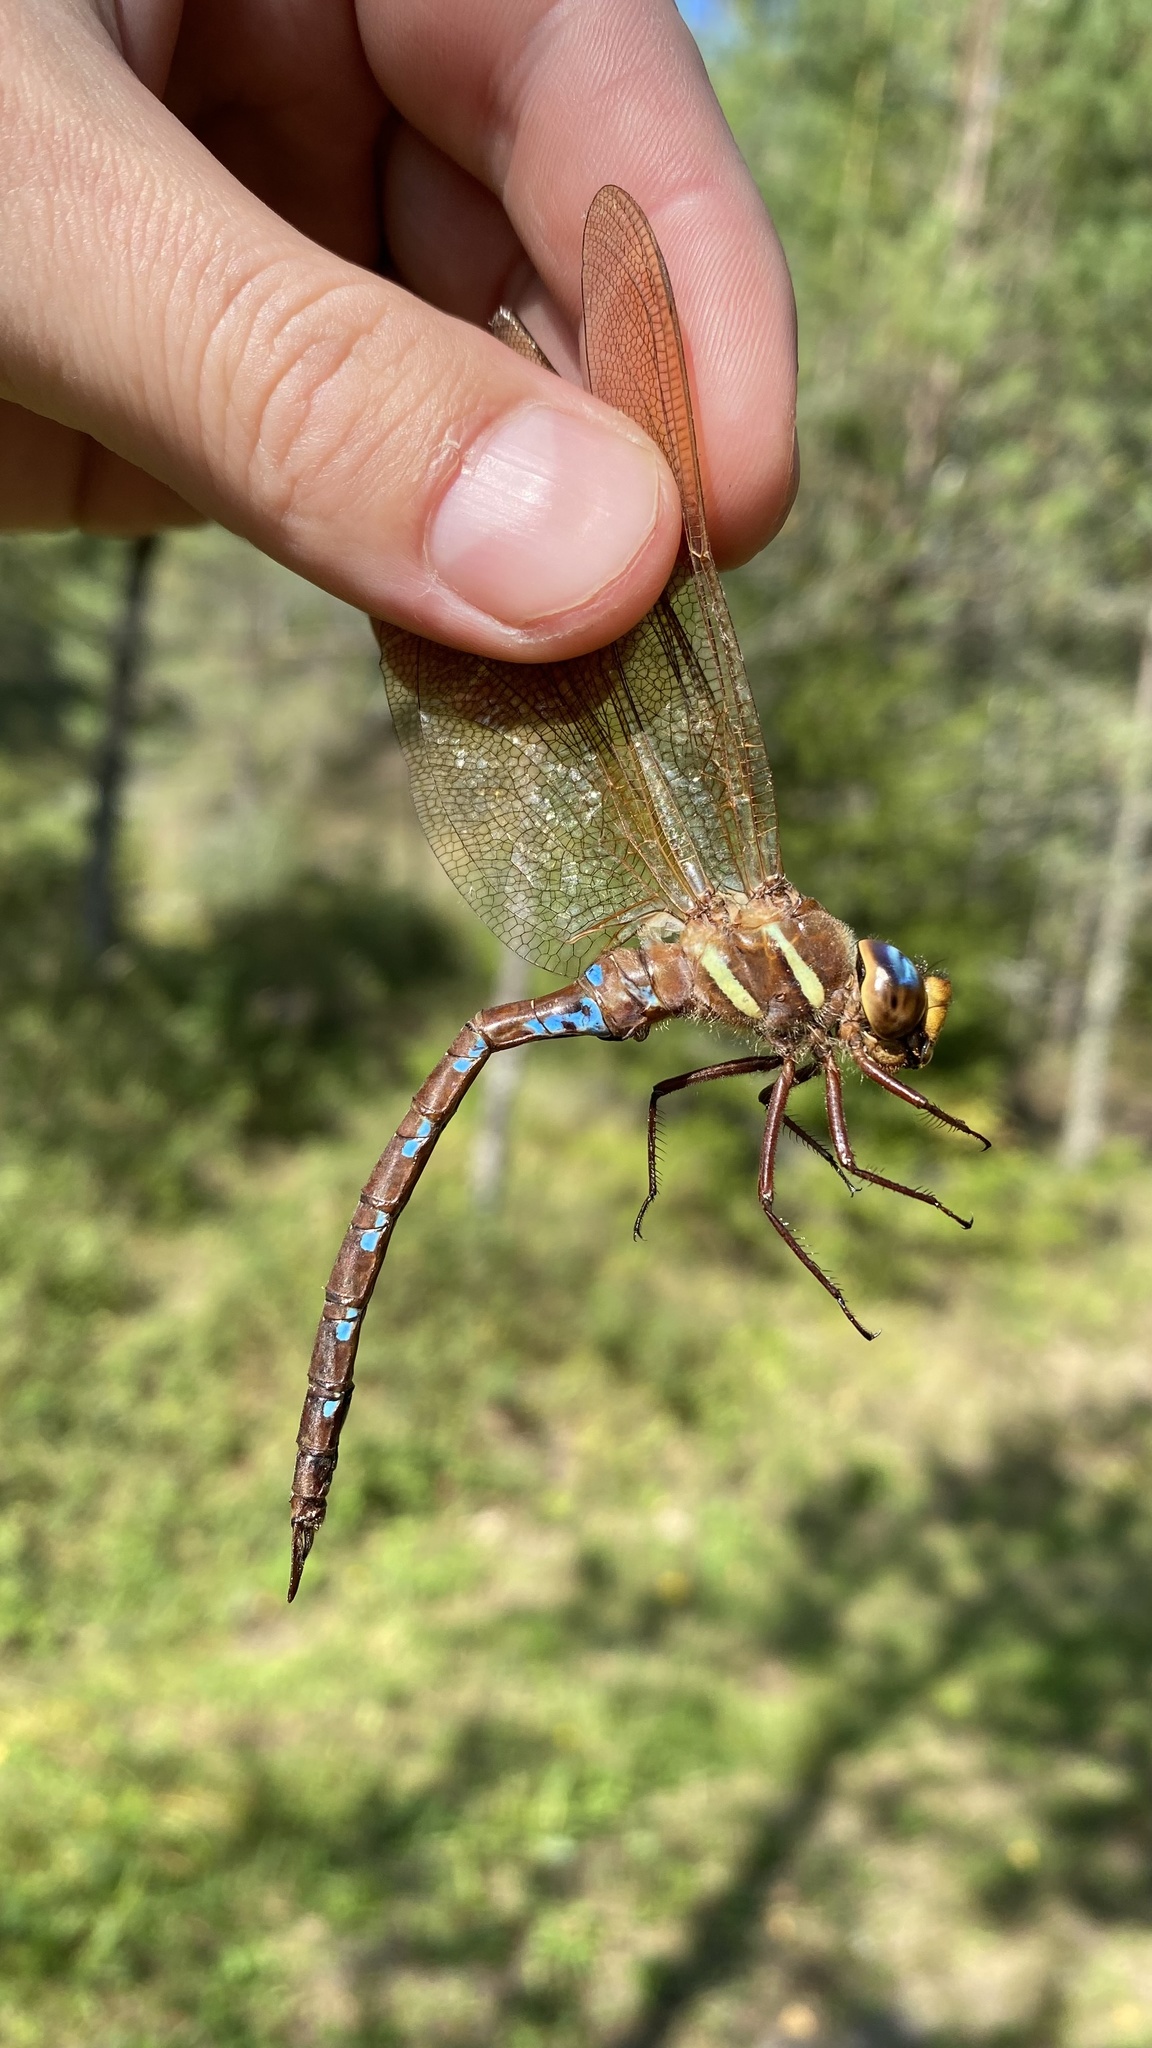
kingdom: Animalia
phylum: Arthropoda
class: Insecta
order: Odonata
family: Aeshnidae
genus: Aeshna
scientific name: Aeshna grandis
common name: Brown hawker
